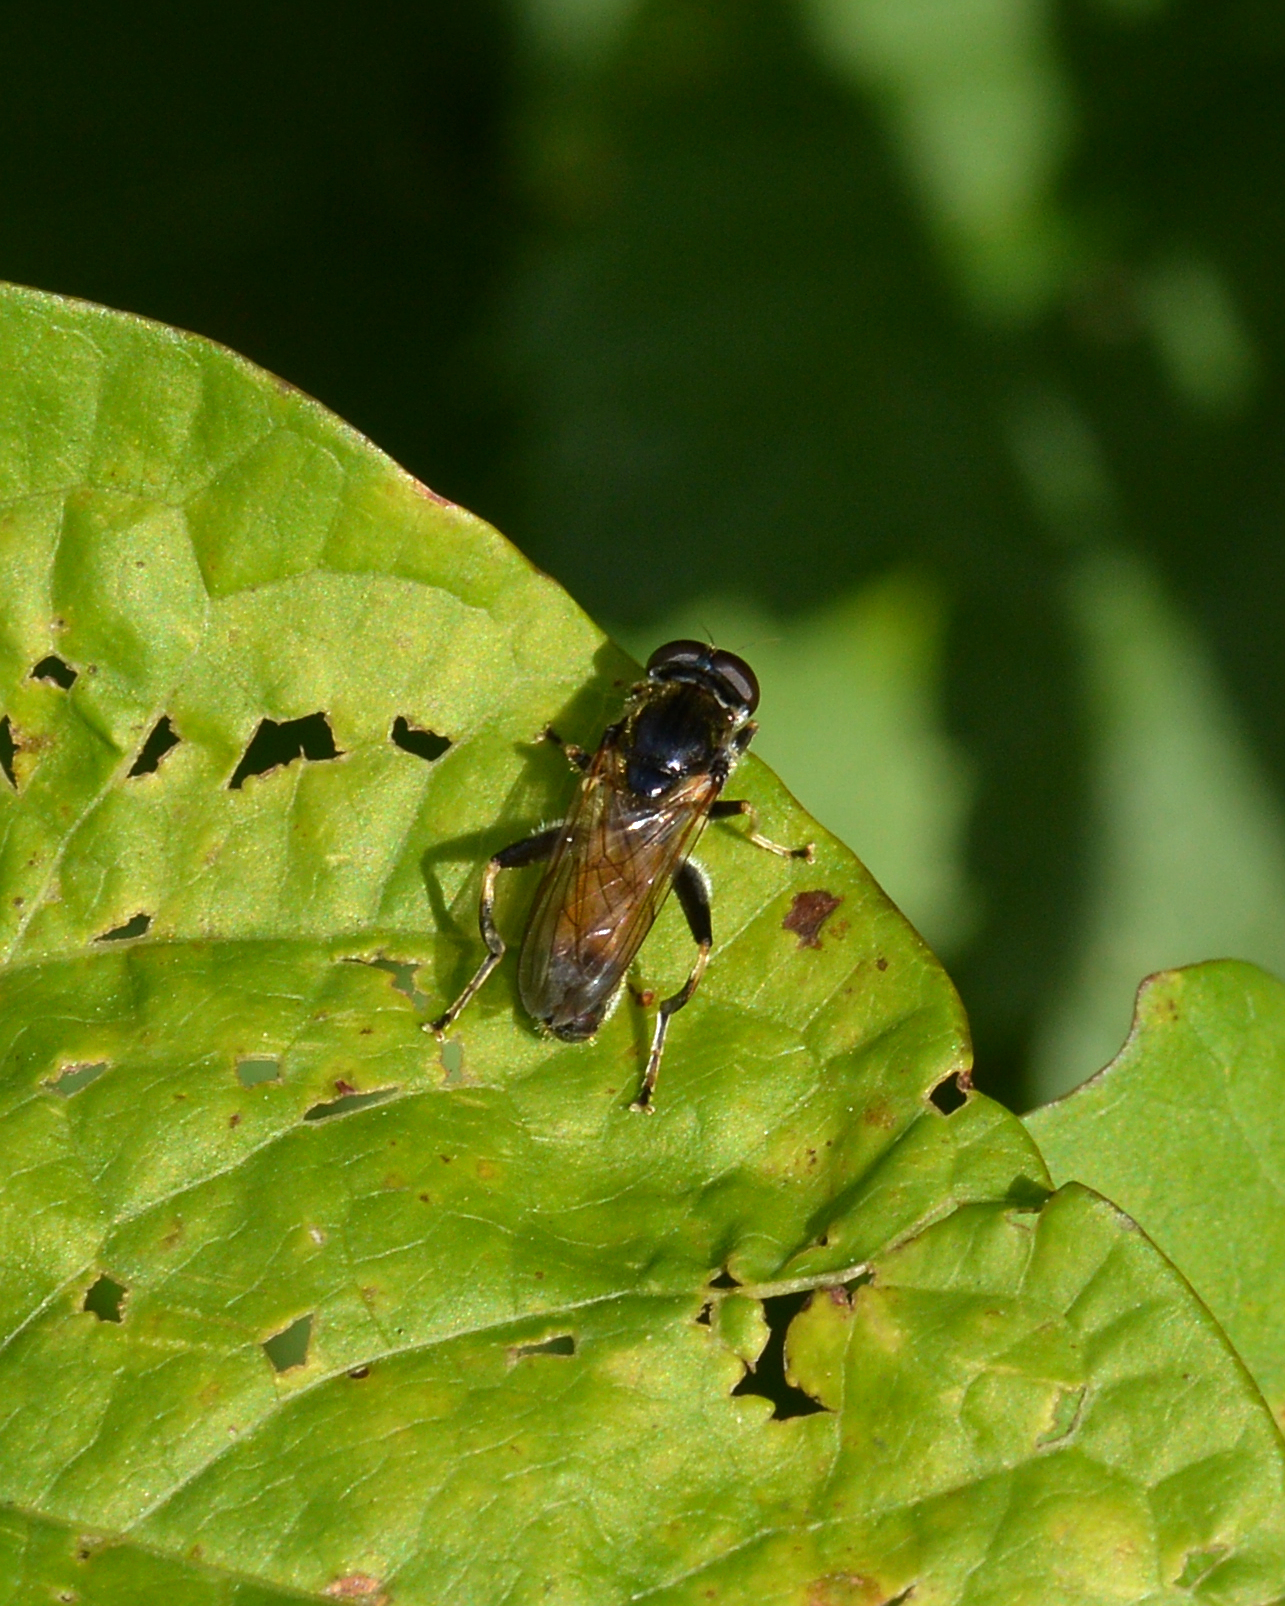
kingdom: Animalia
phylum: Arthropoda
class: Insecta
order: Diptera
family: Syrphidae
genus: Xylota
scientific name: Xylota segnis
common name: Brown-toed forest fly
